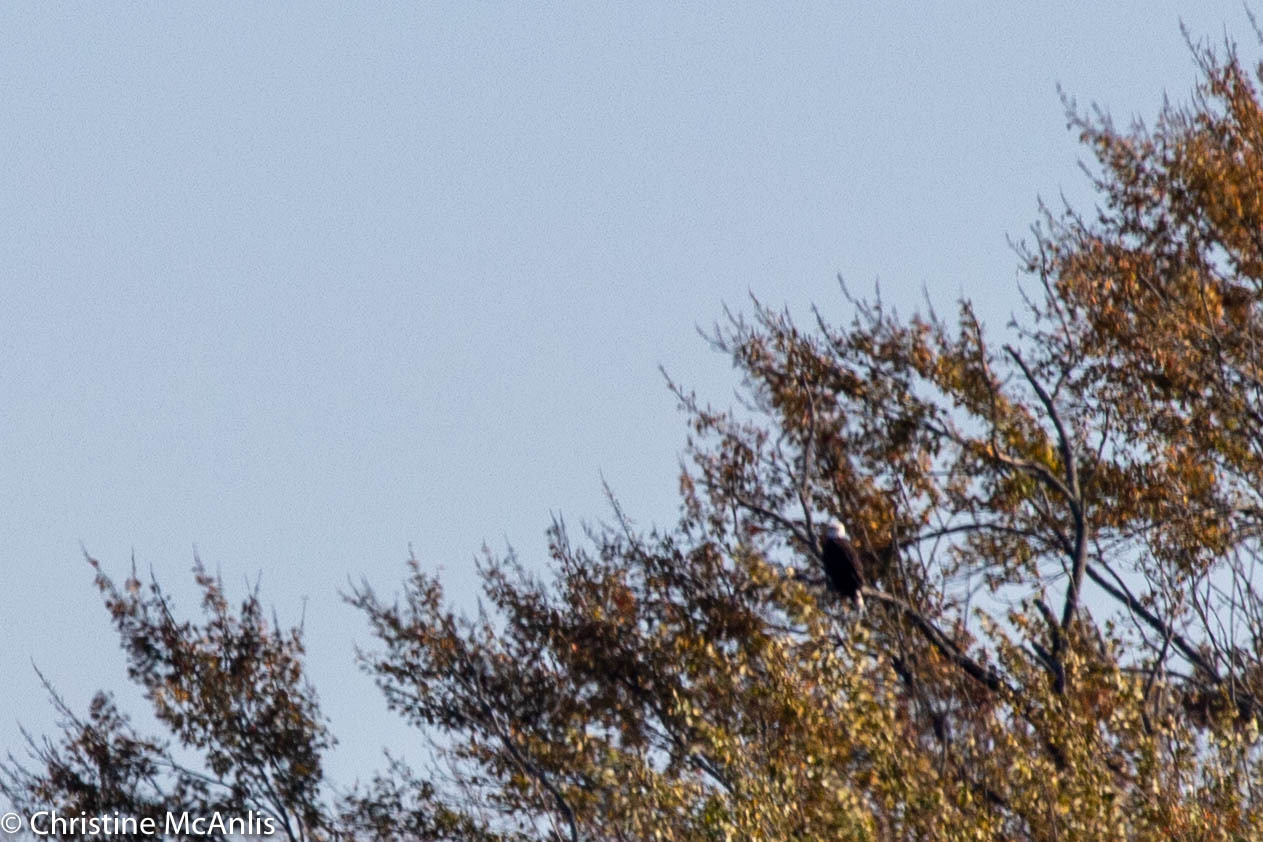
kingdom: Animalia
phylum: Chordata
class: Aves
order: Accipitriformes
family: Accipitridae
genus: Haliaeetus
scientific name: Haliaeetus leucocephalus
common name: Bald eagle
